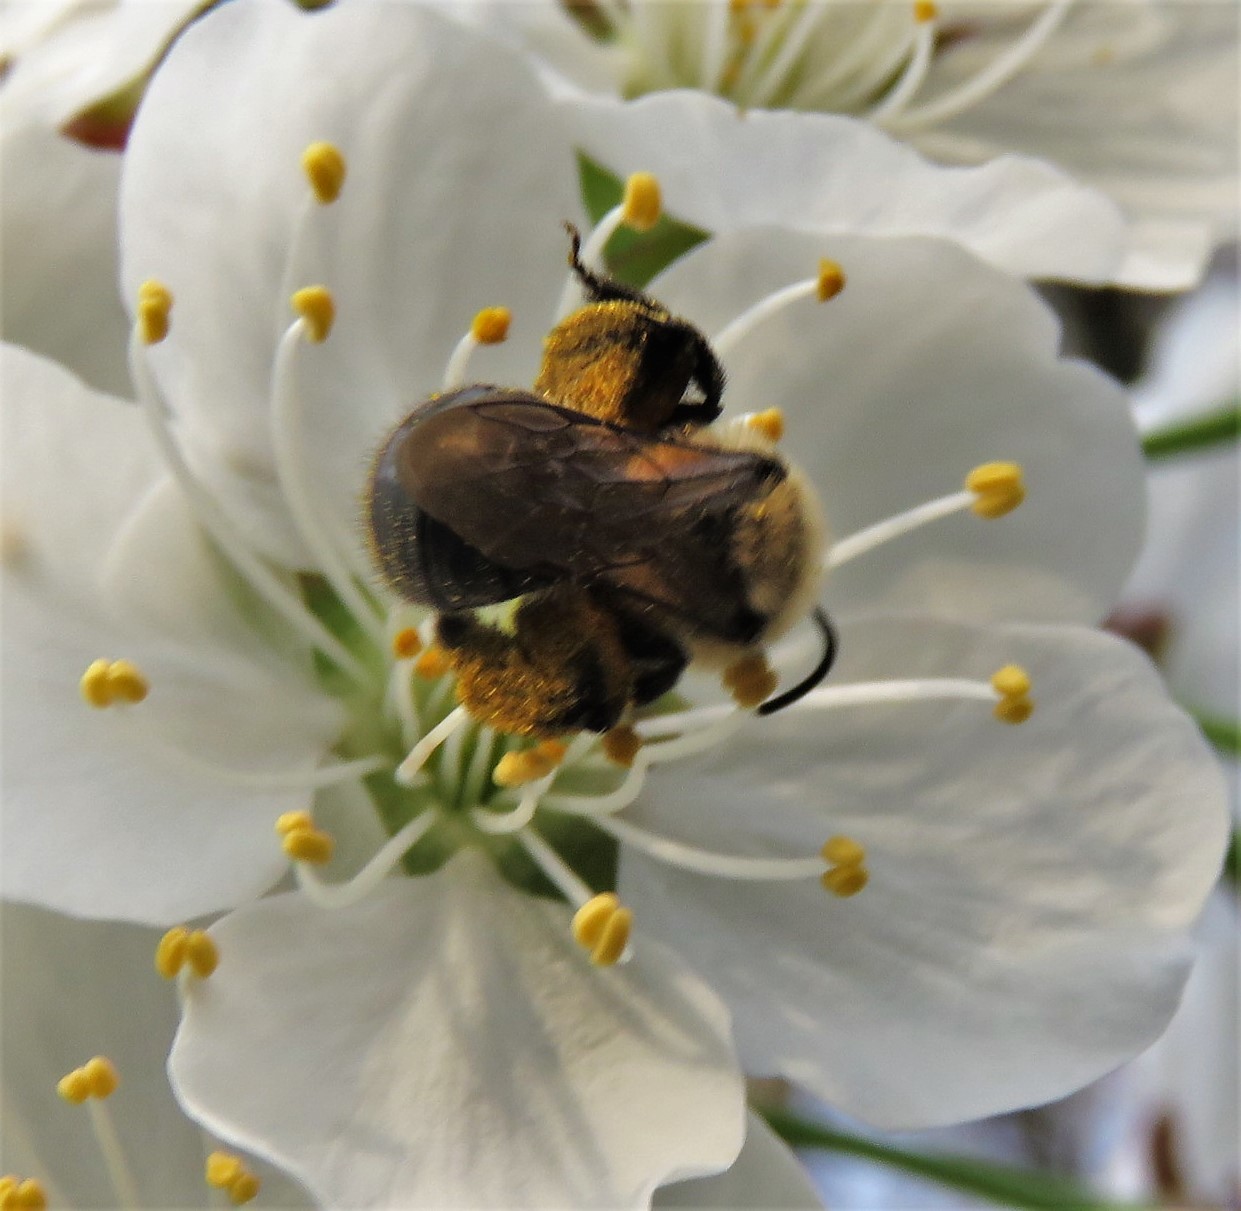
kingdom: Animalia
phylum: Arthropoda
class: Insecta
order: Hymenoptera
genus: Melandrena
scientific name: Melandrena
